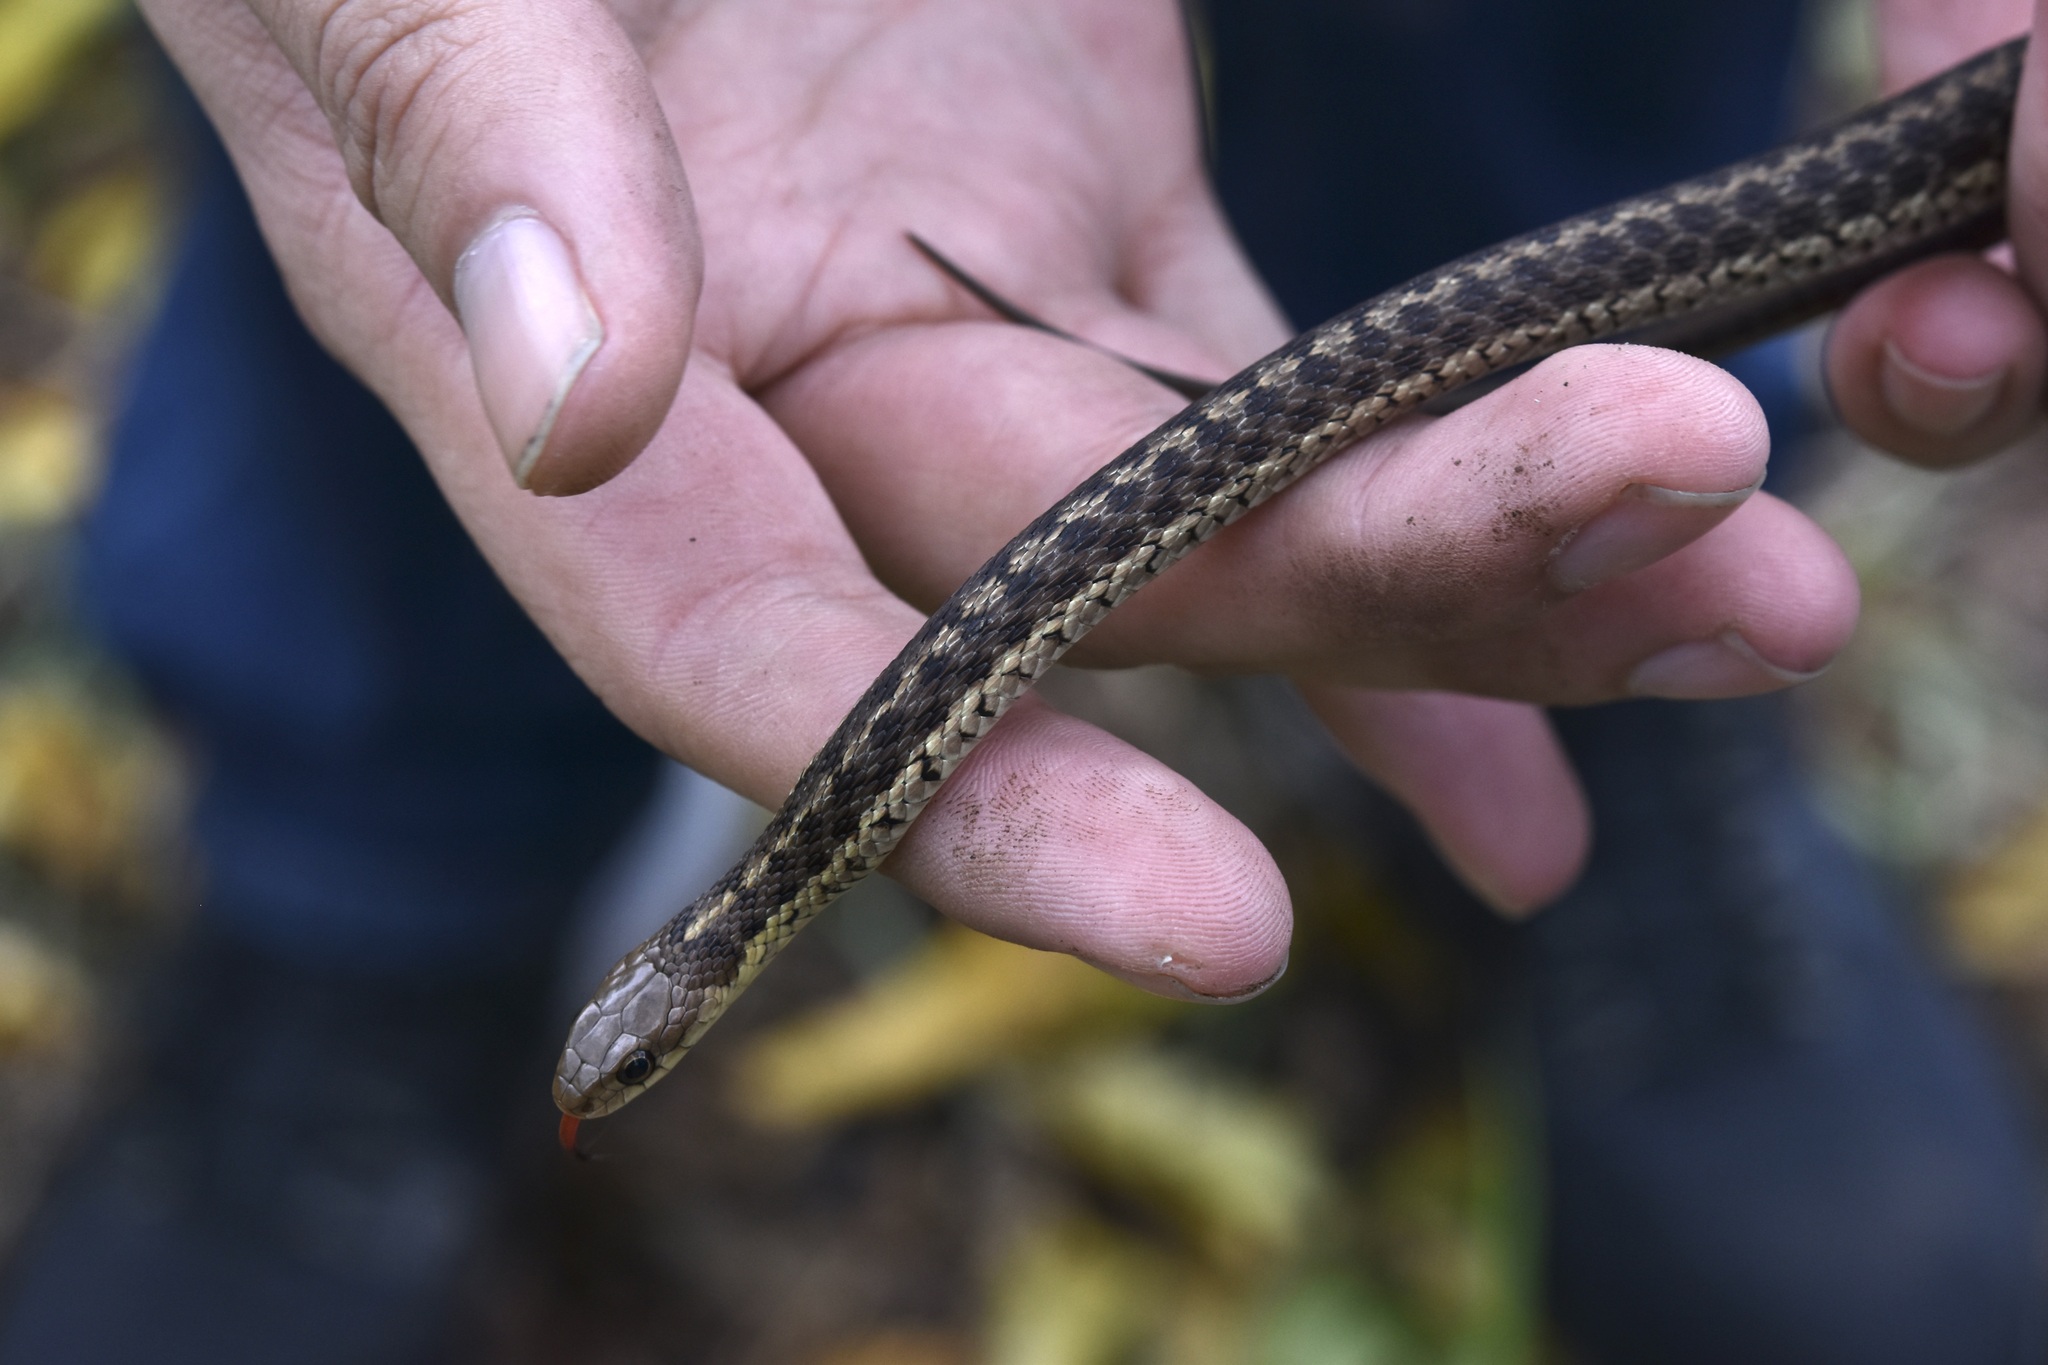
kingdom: Animalia
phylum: Chordata
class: Squamata
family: Colubridae
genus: Thamnophis
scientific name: Thamnophis sirtalis
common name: Common garter snake
